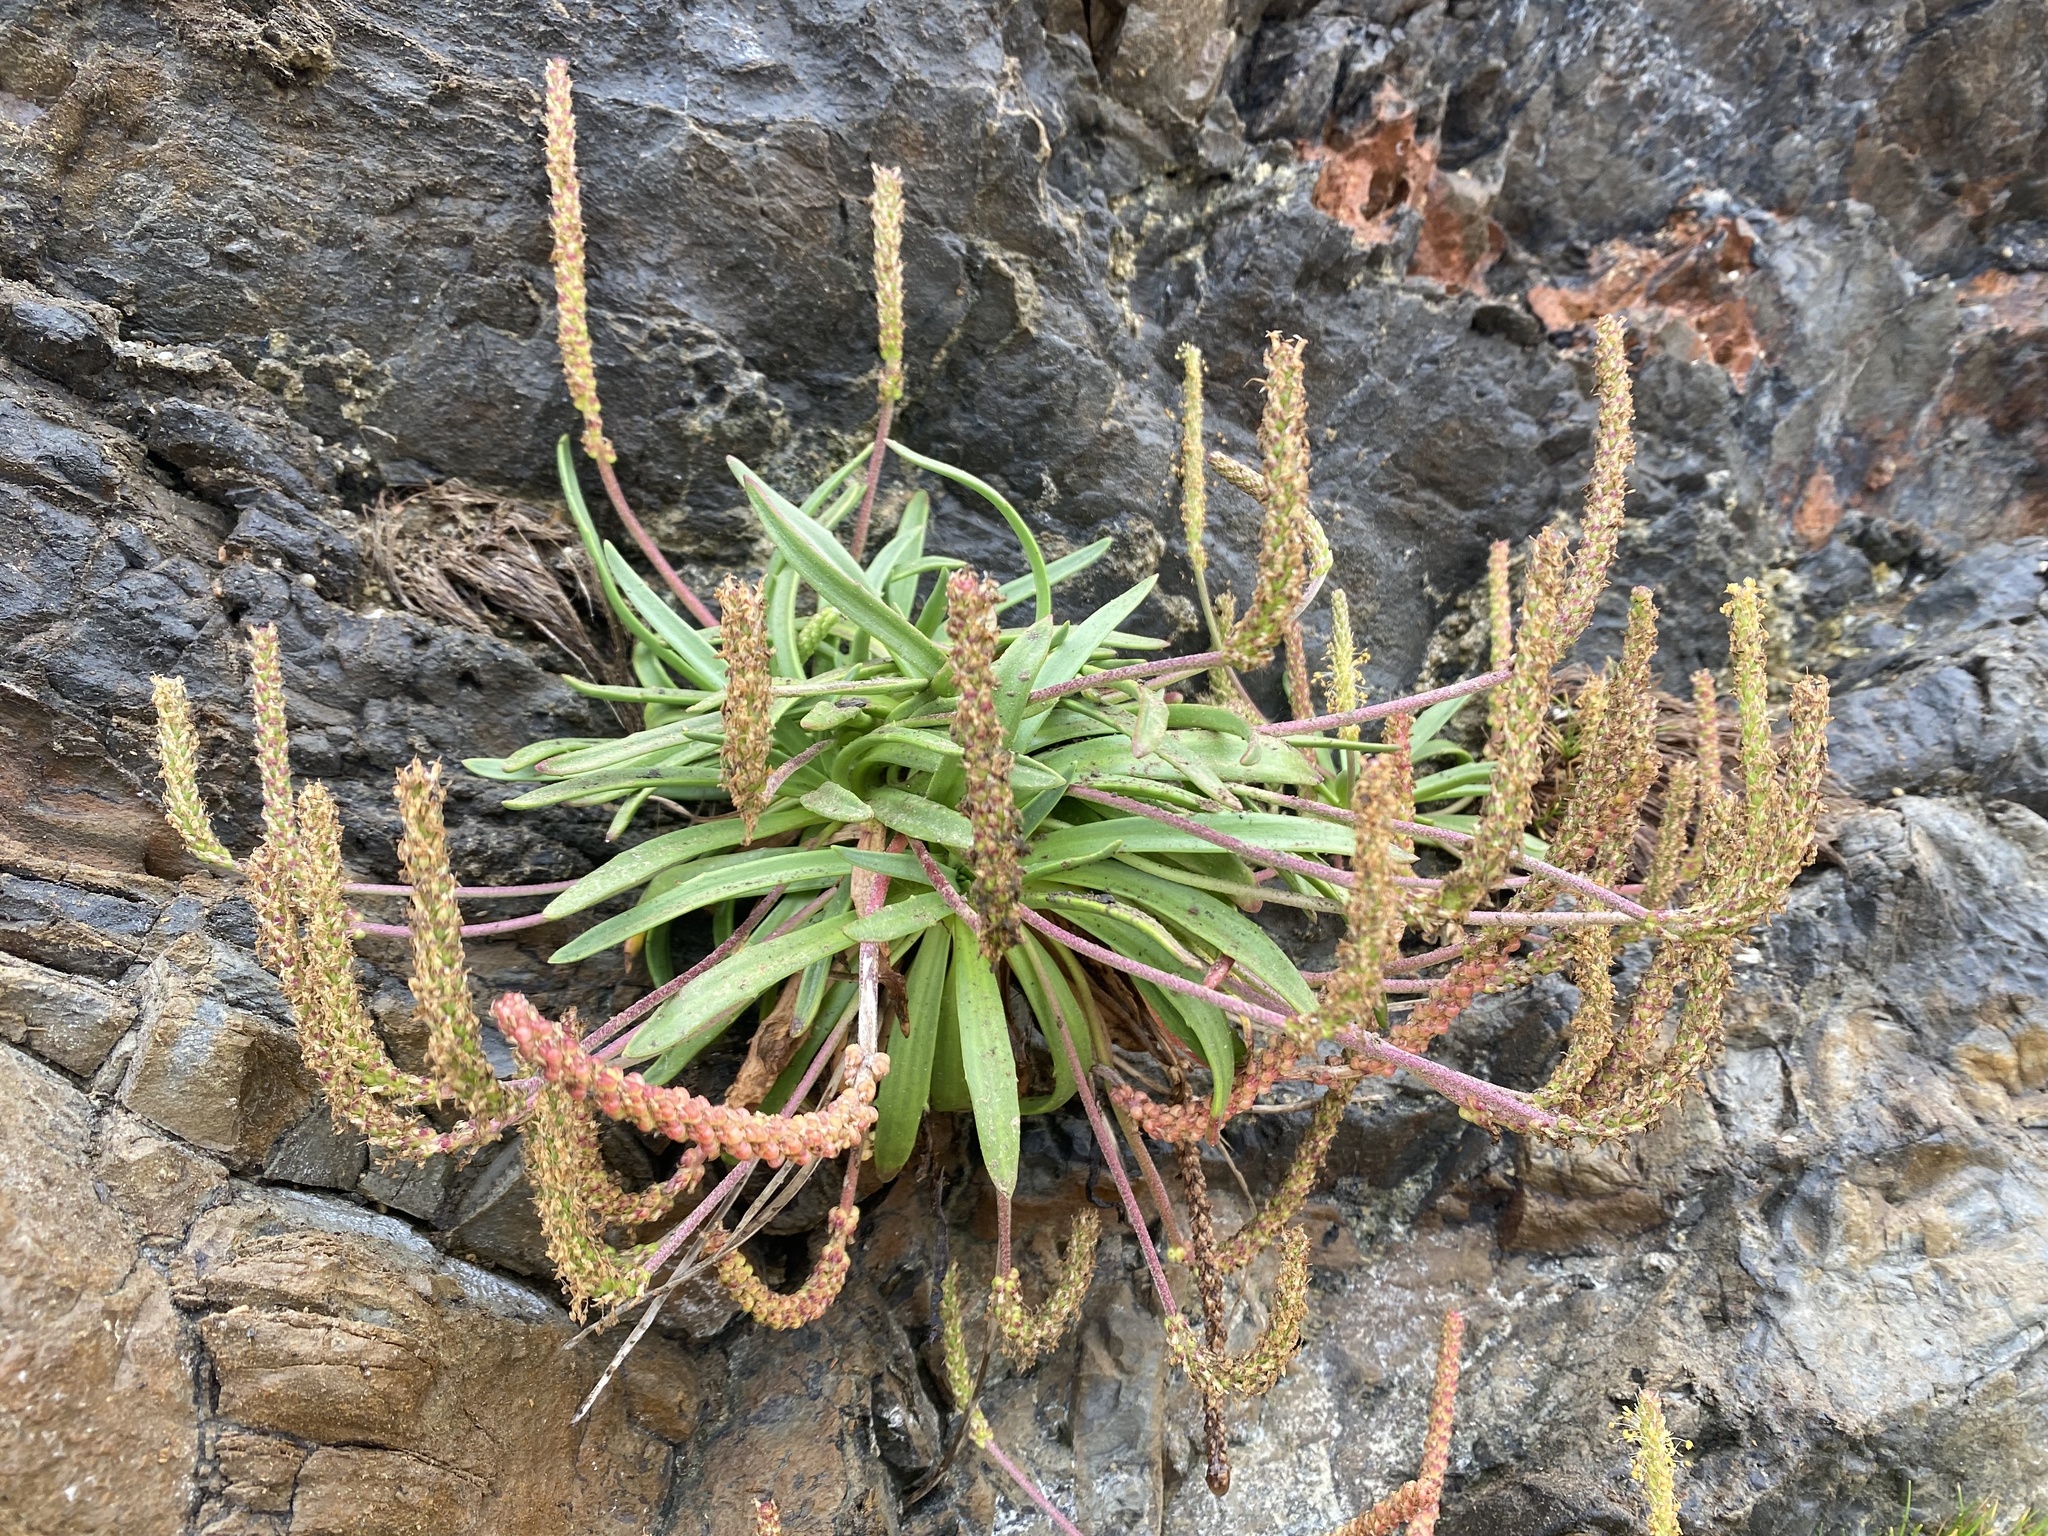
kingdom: Plantae
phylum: Tracheophyta
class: Magnoliopsida
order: Lamiales
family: Plantaginaceae
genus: Plantago
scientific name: Plantago maritima
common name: Sea plantain
